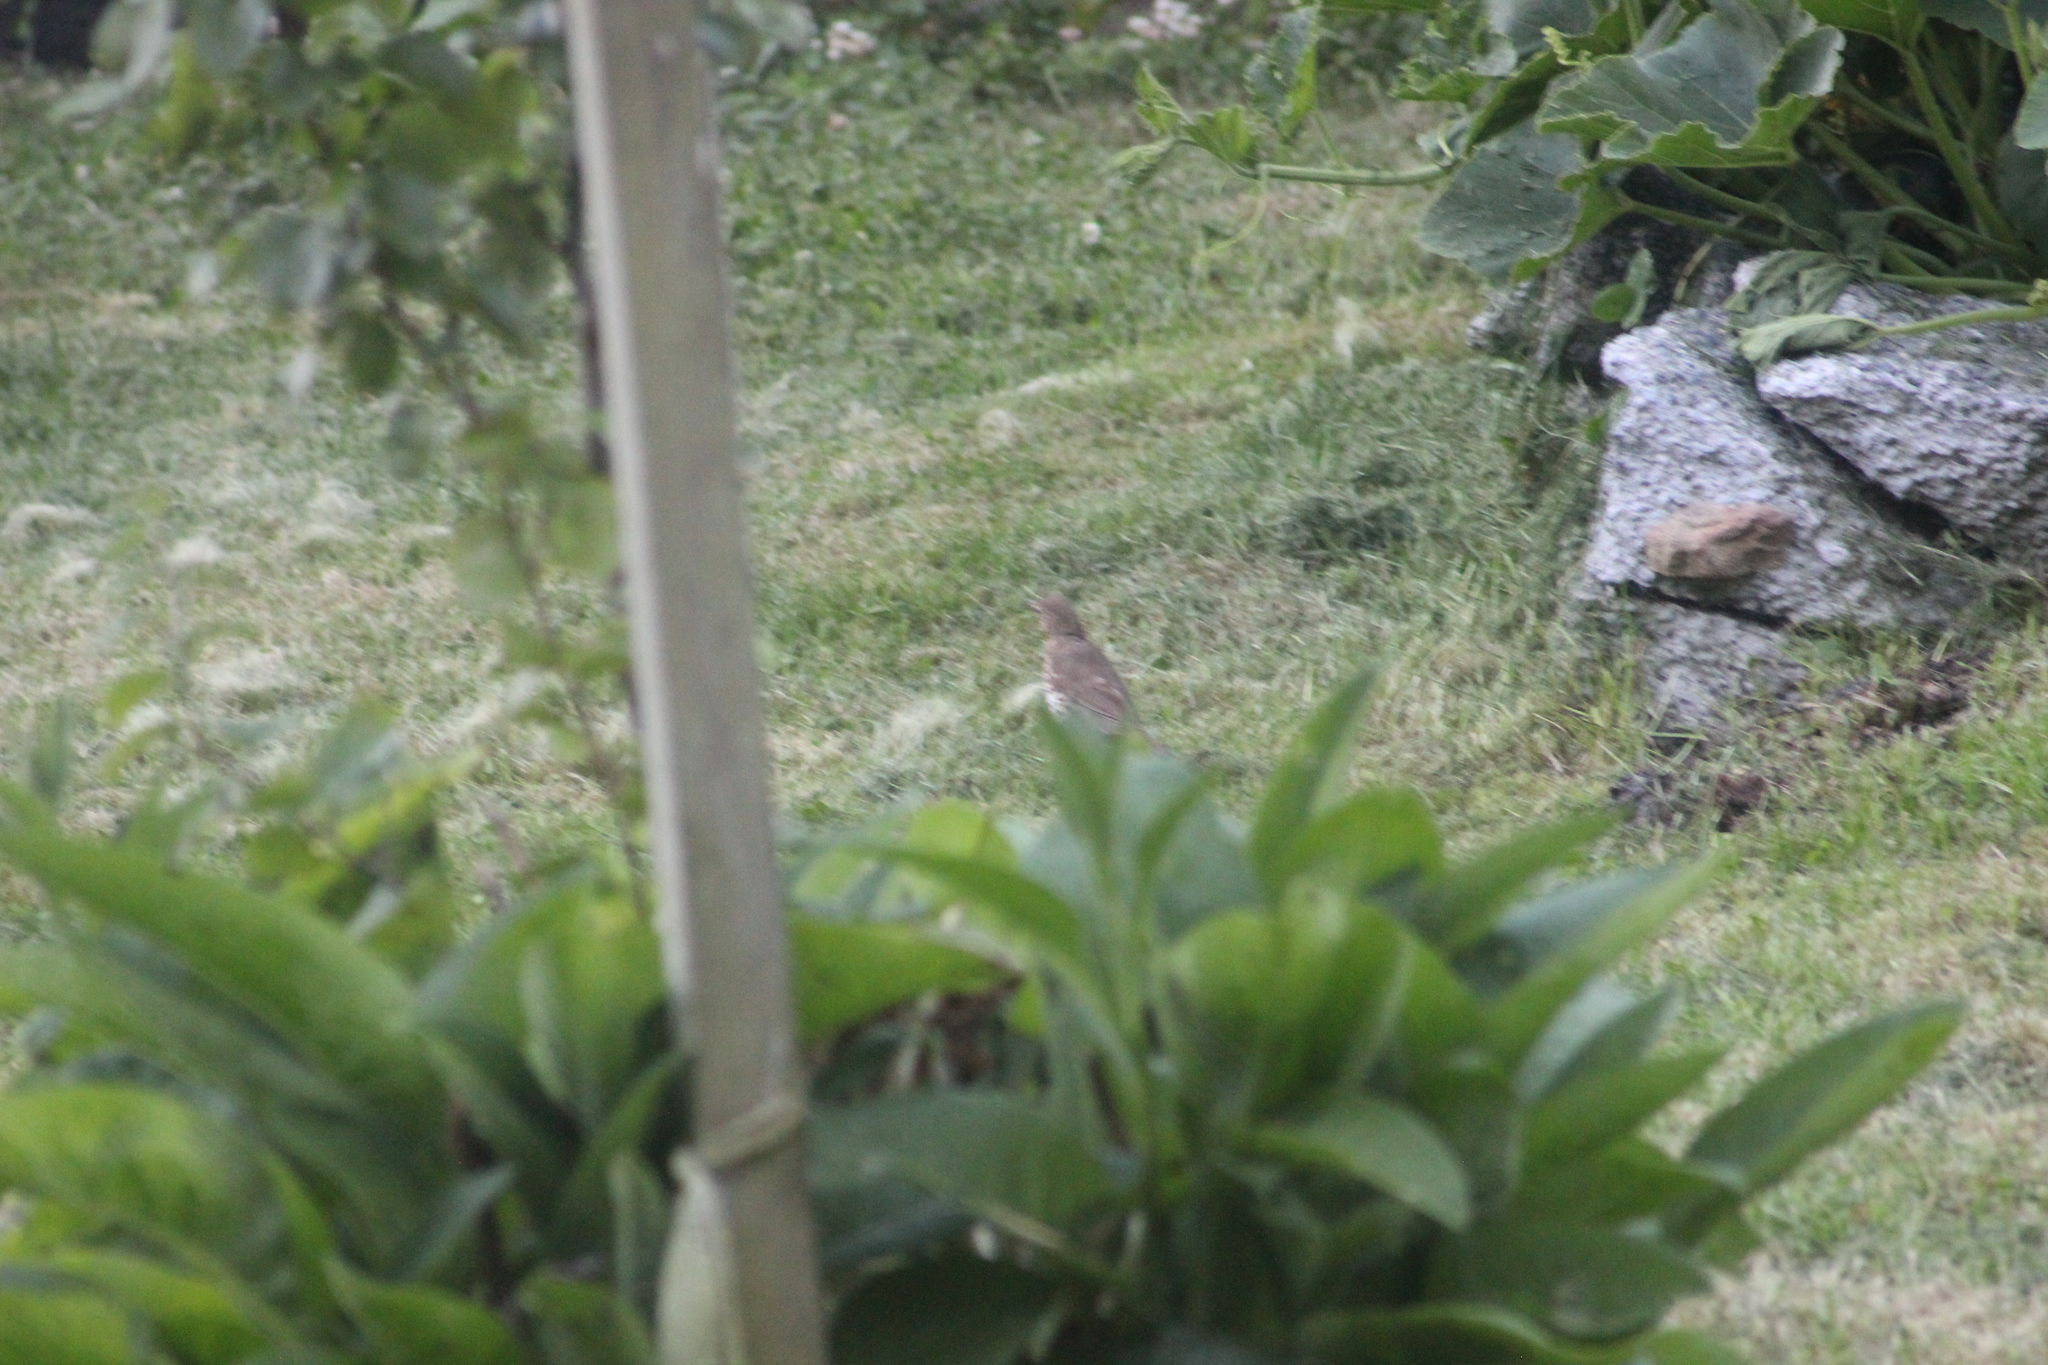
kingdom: Animalia
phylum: Chordata
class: Aves
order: Passeriformes
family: Turdidae
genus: Turdus
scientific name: Turdus philomelos
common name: Song thrush
